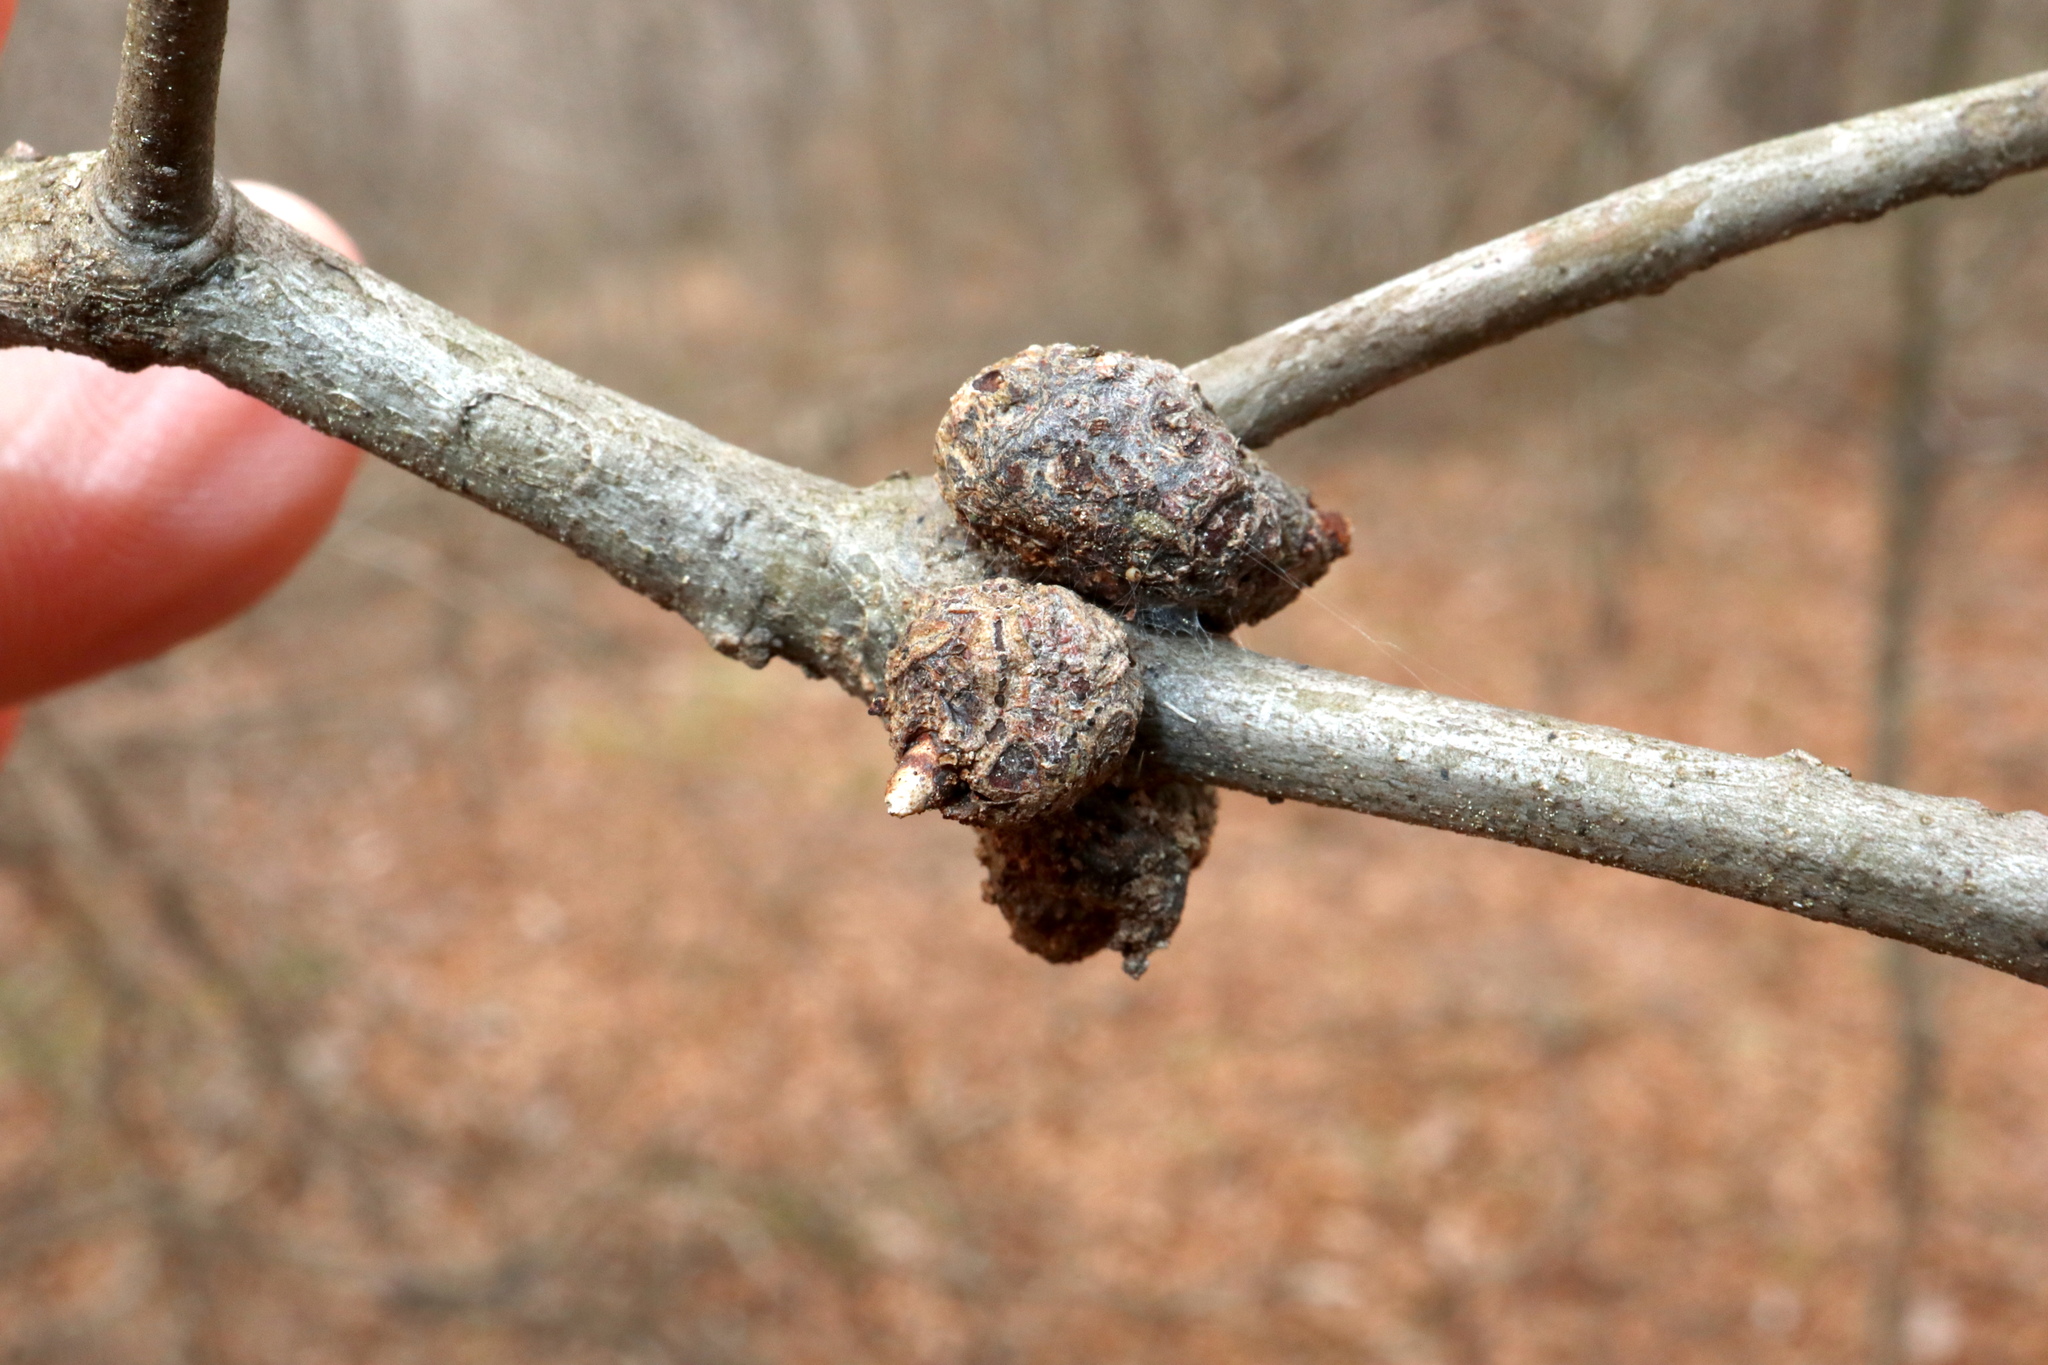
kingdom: Animalia
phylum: Arthropoda
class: Insecta
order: Hymenoptera
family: Cynipidae
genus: Callirhytis
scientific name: Callirhytis
